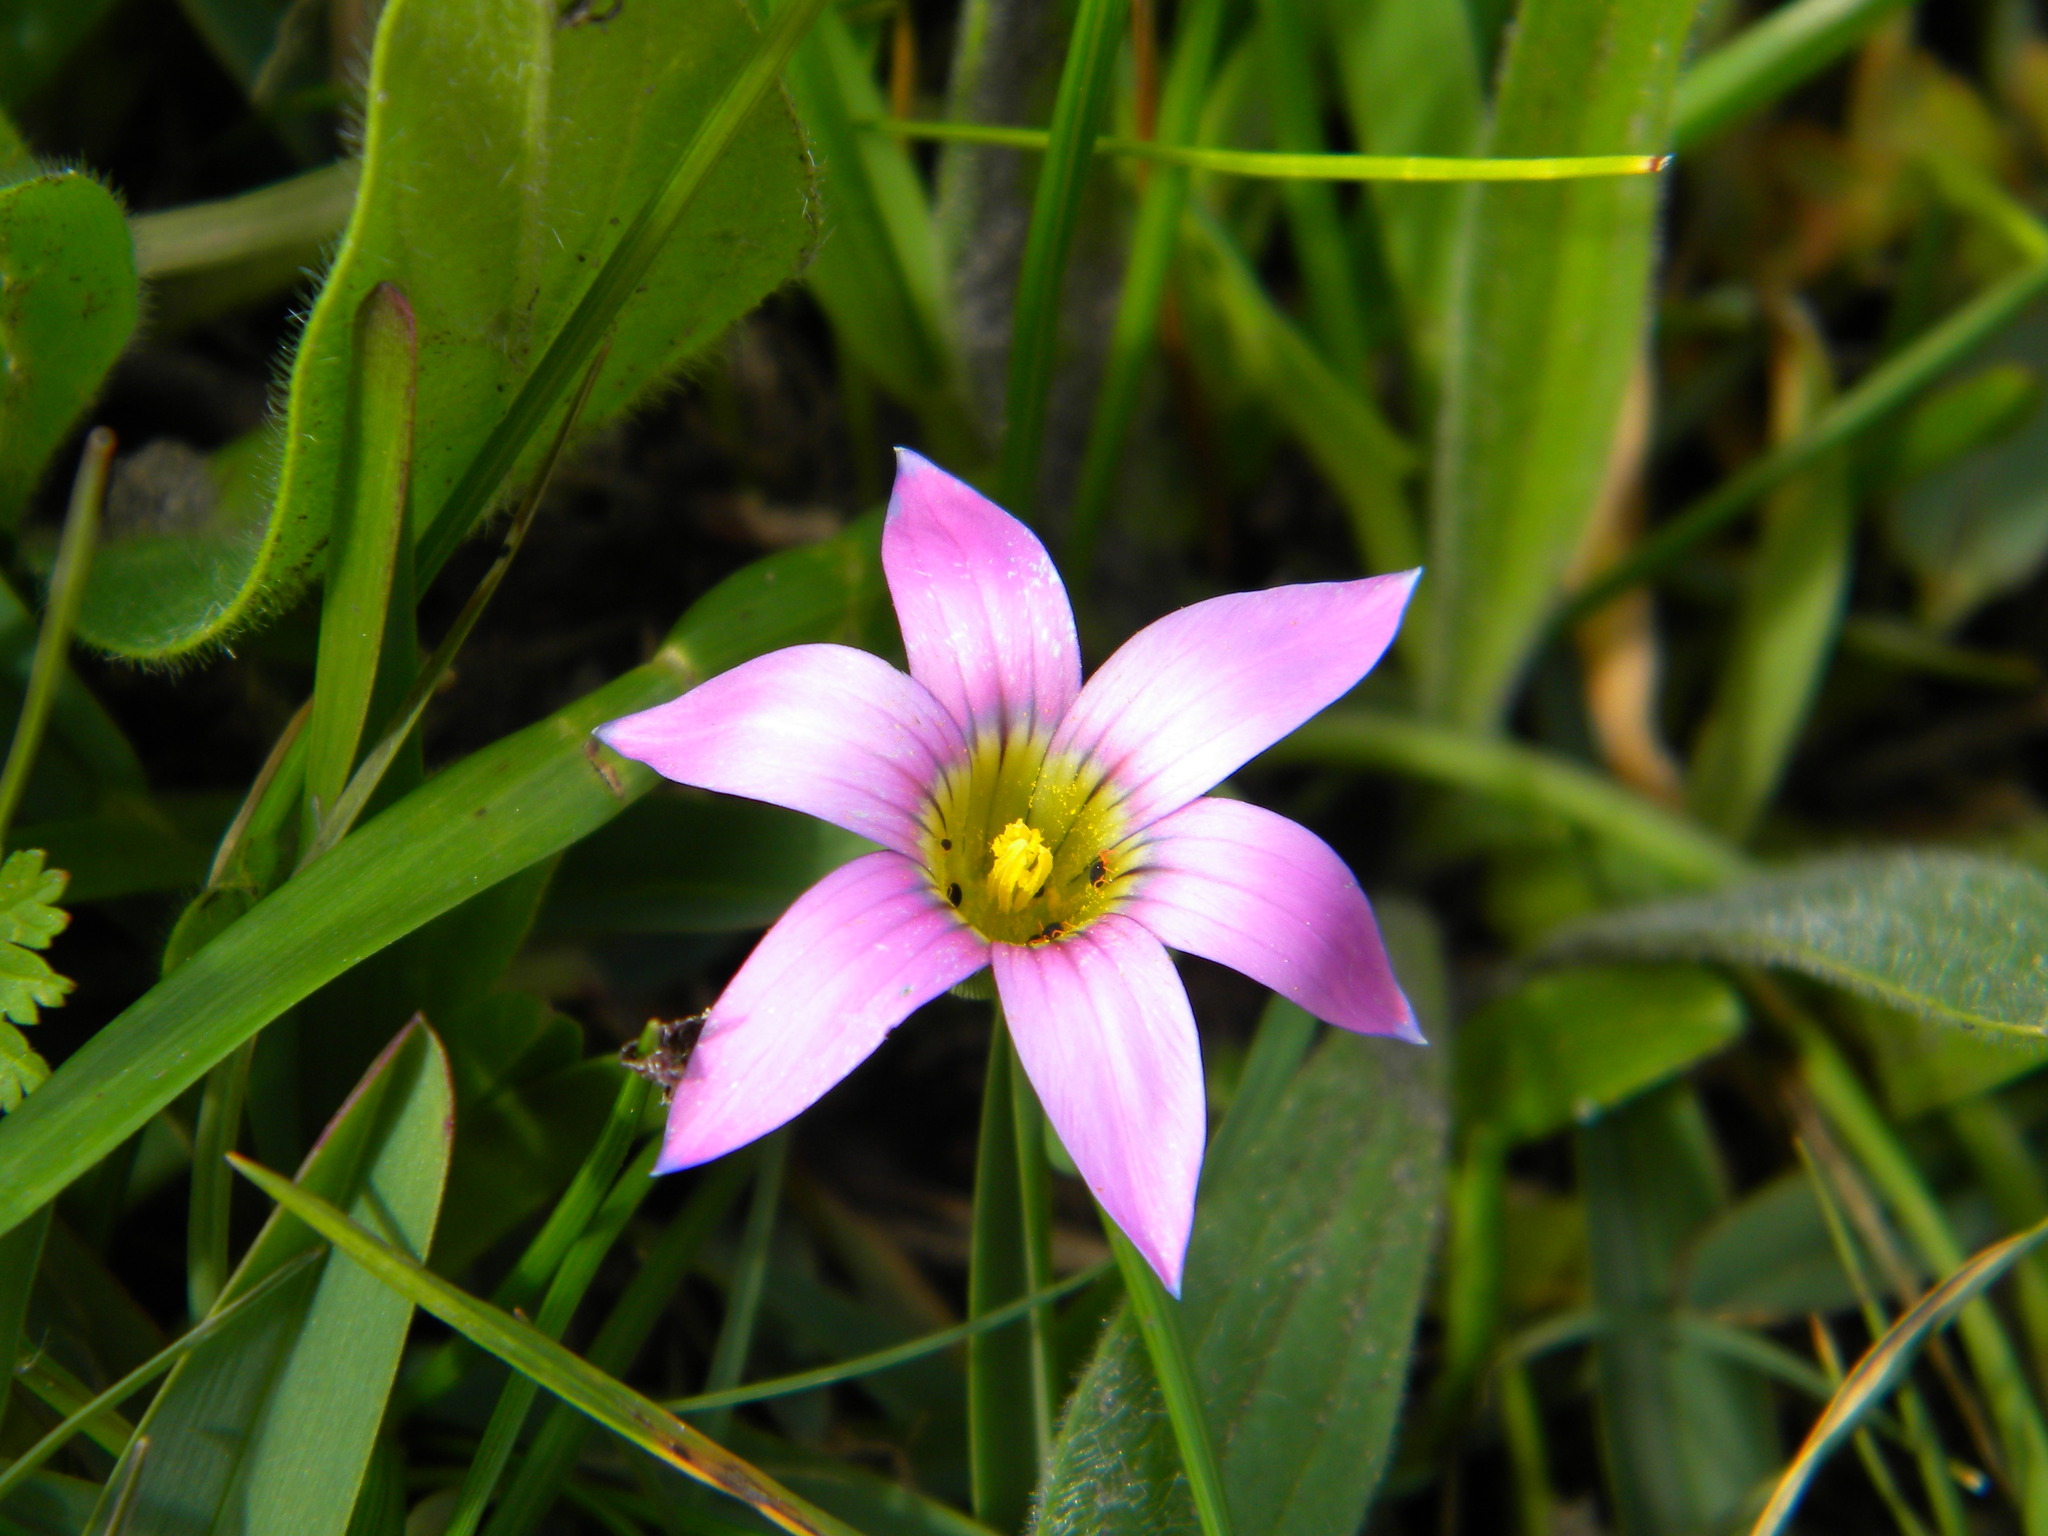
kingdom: Plantae
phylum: Tracheophyta
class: Liliopsida
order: Asparagales
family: Iridaceae
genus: Romulea
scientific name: Romulea rosea
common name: Oniongrass
